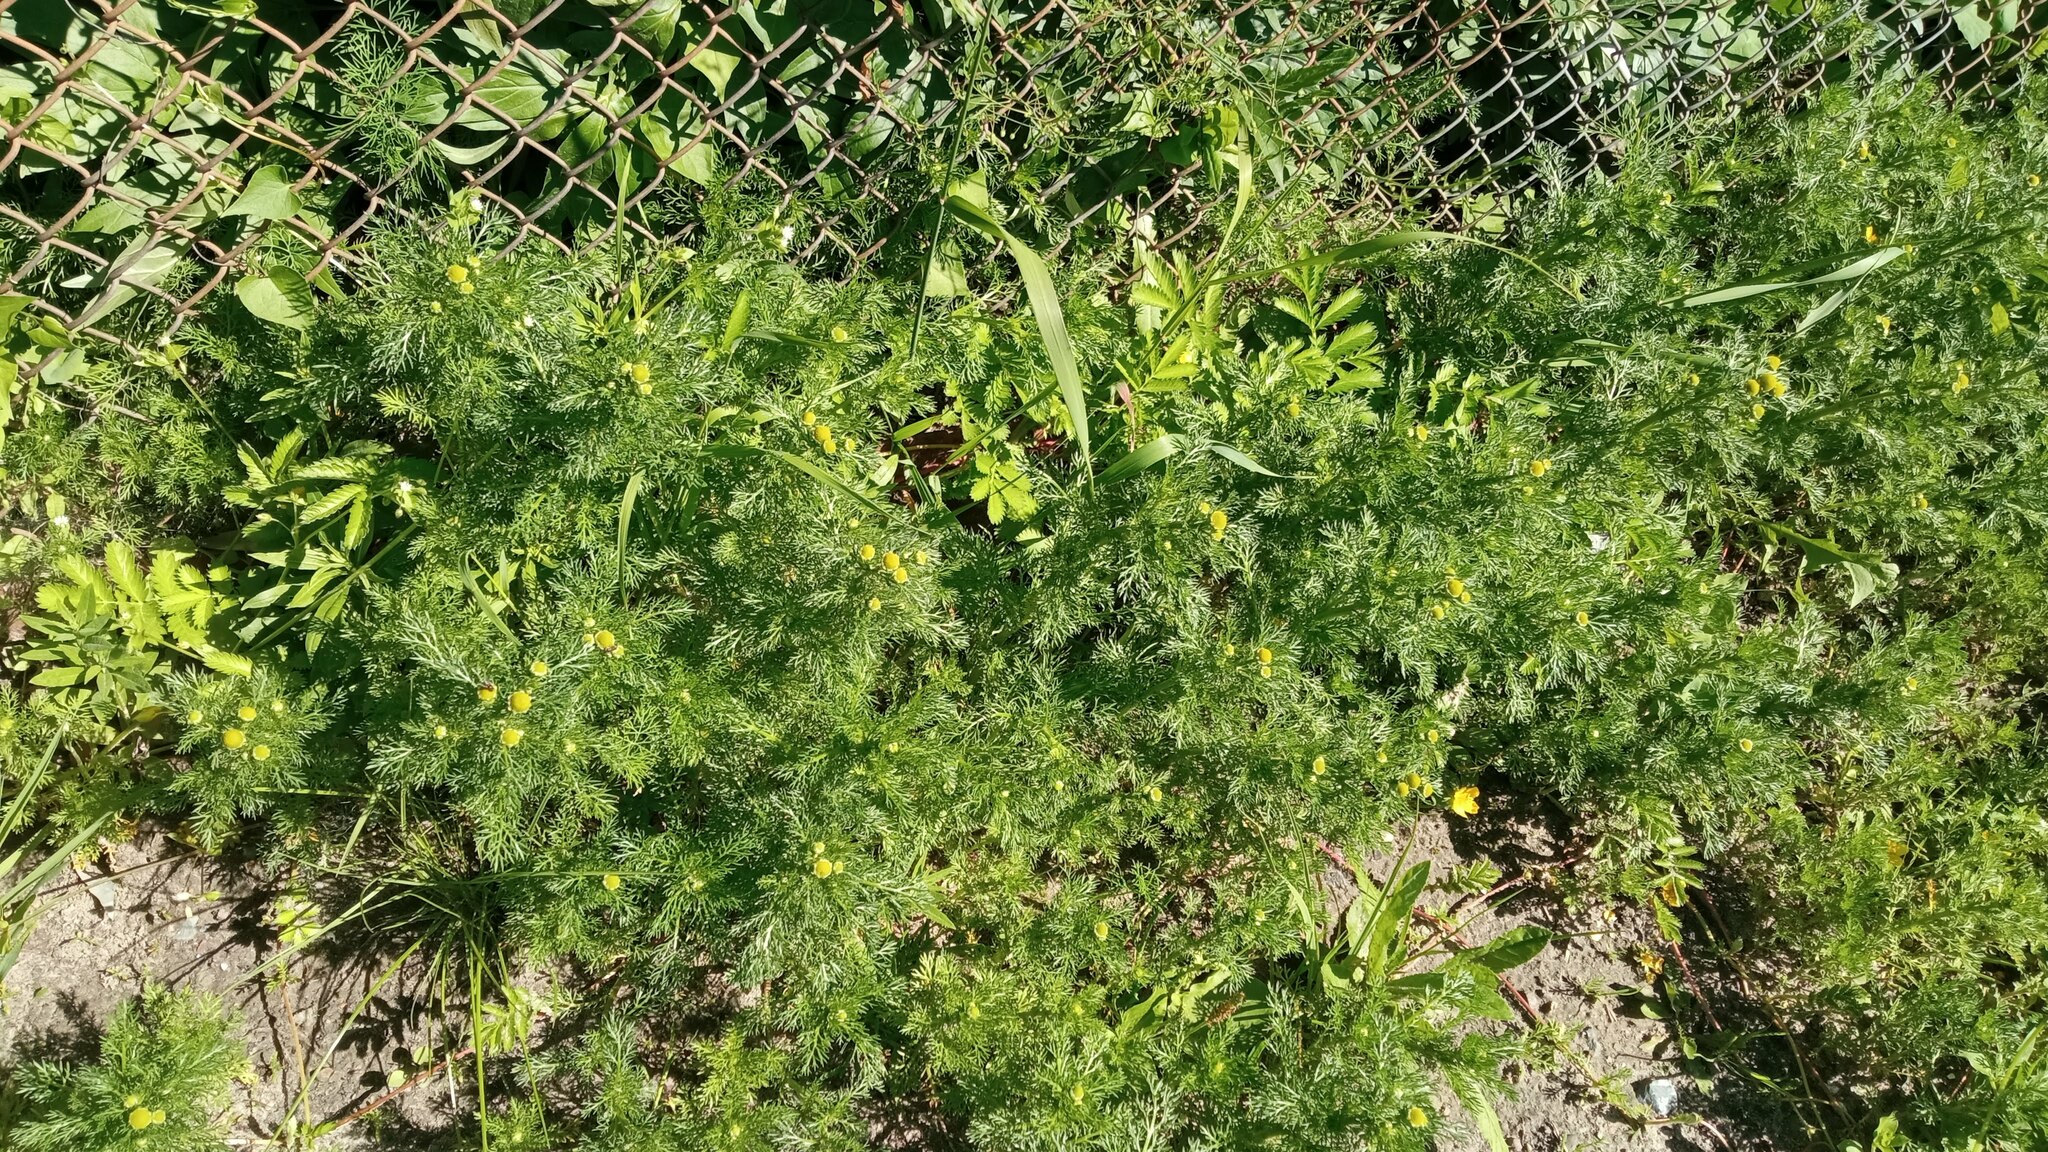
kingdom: Plantae
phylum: Tracheophyta
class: Magnoliopsida
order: Asterales
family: Asteraceae
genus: Matricaria
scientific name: Matricaria discoidea
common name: Disc mayweed
